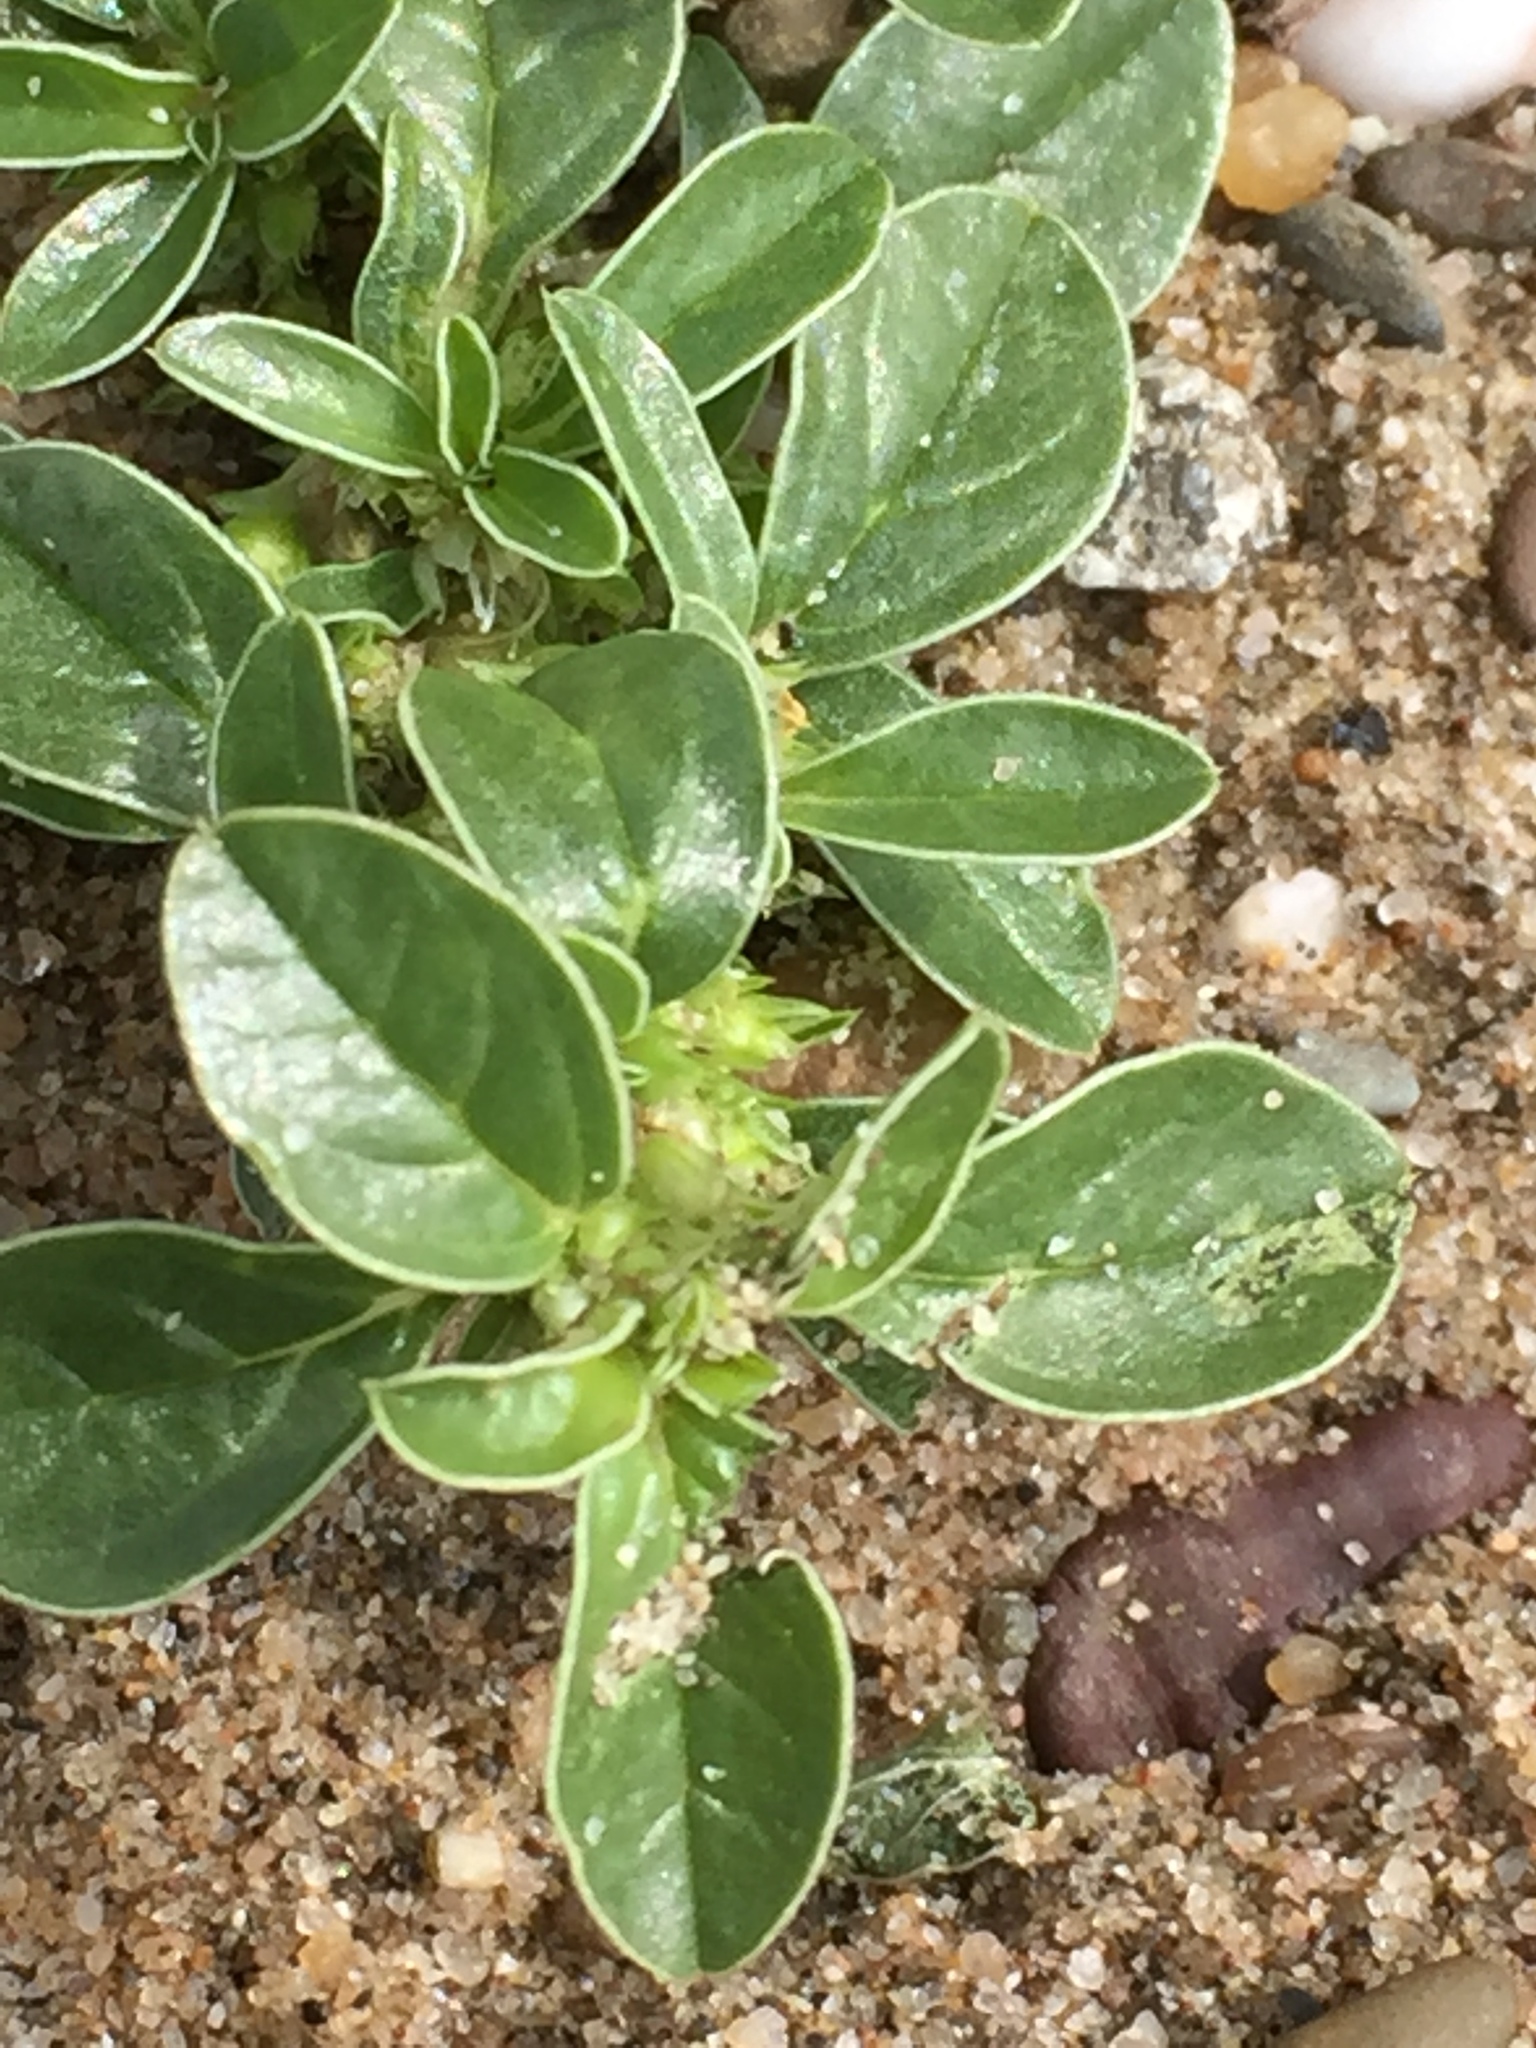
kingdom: Plantae
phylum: Tracheophyta
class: Magnoliopsida
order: Caryophyllales
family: Amaranthaceae
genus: Amaranthus
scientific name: Amaranthus blitoides
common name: Prostrate pigweed
